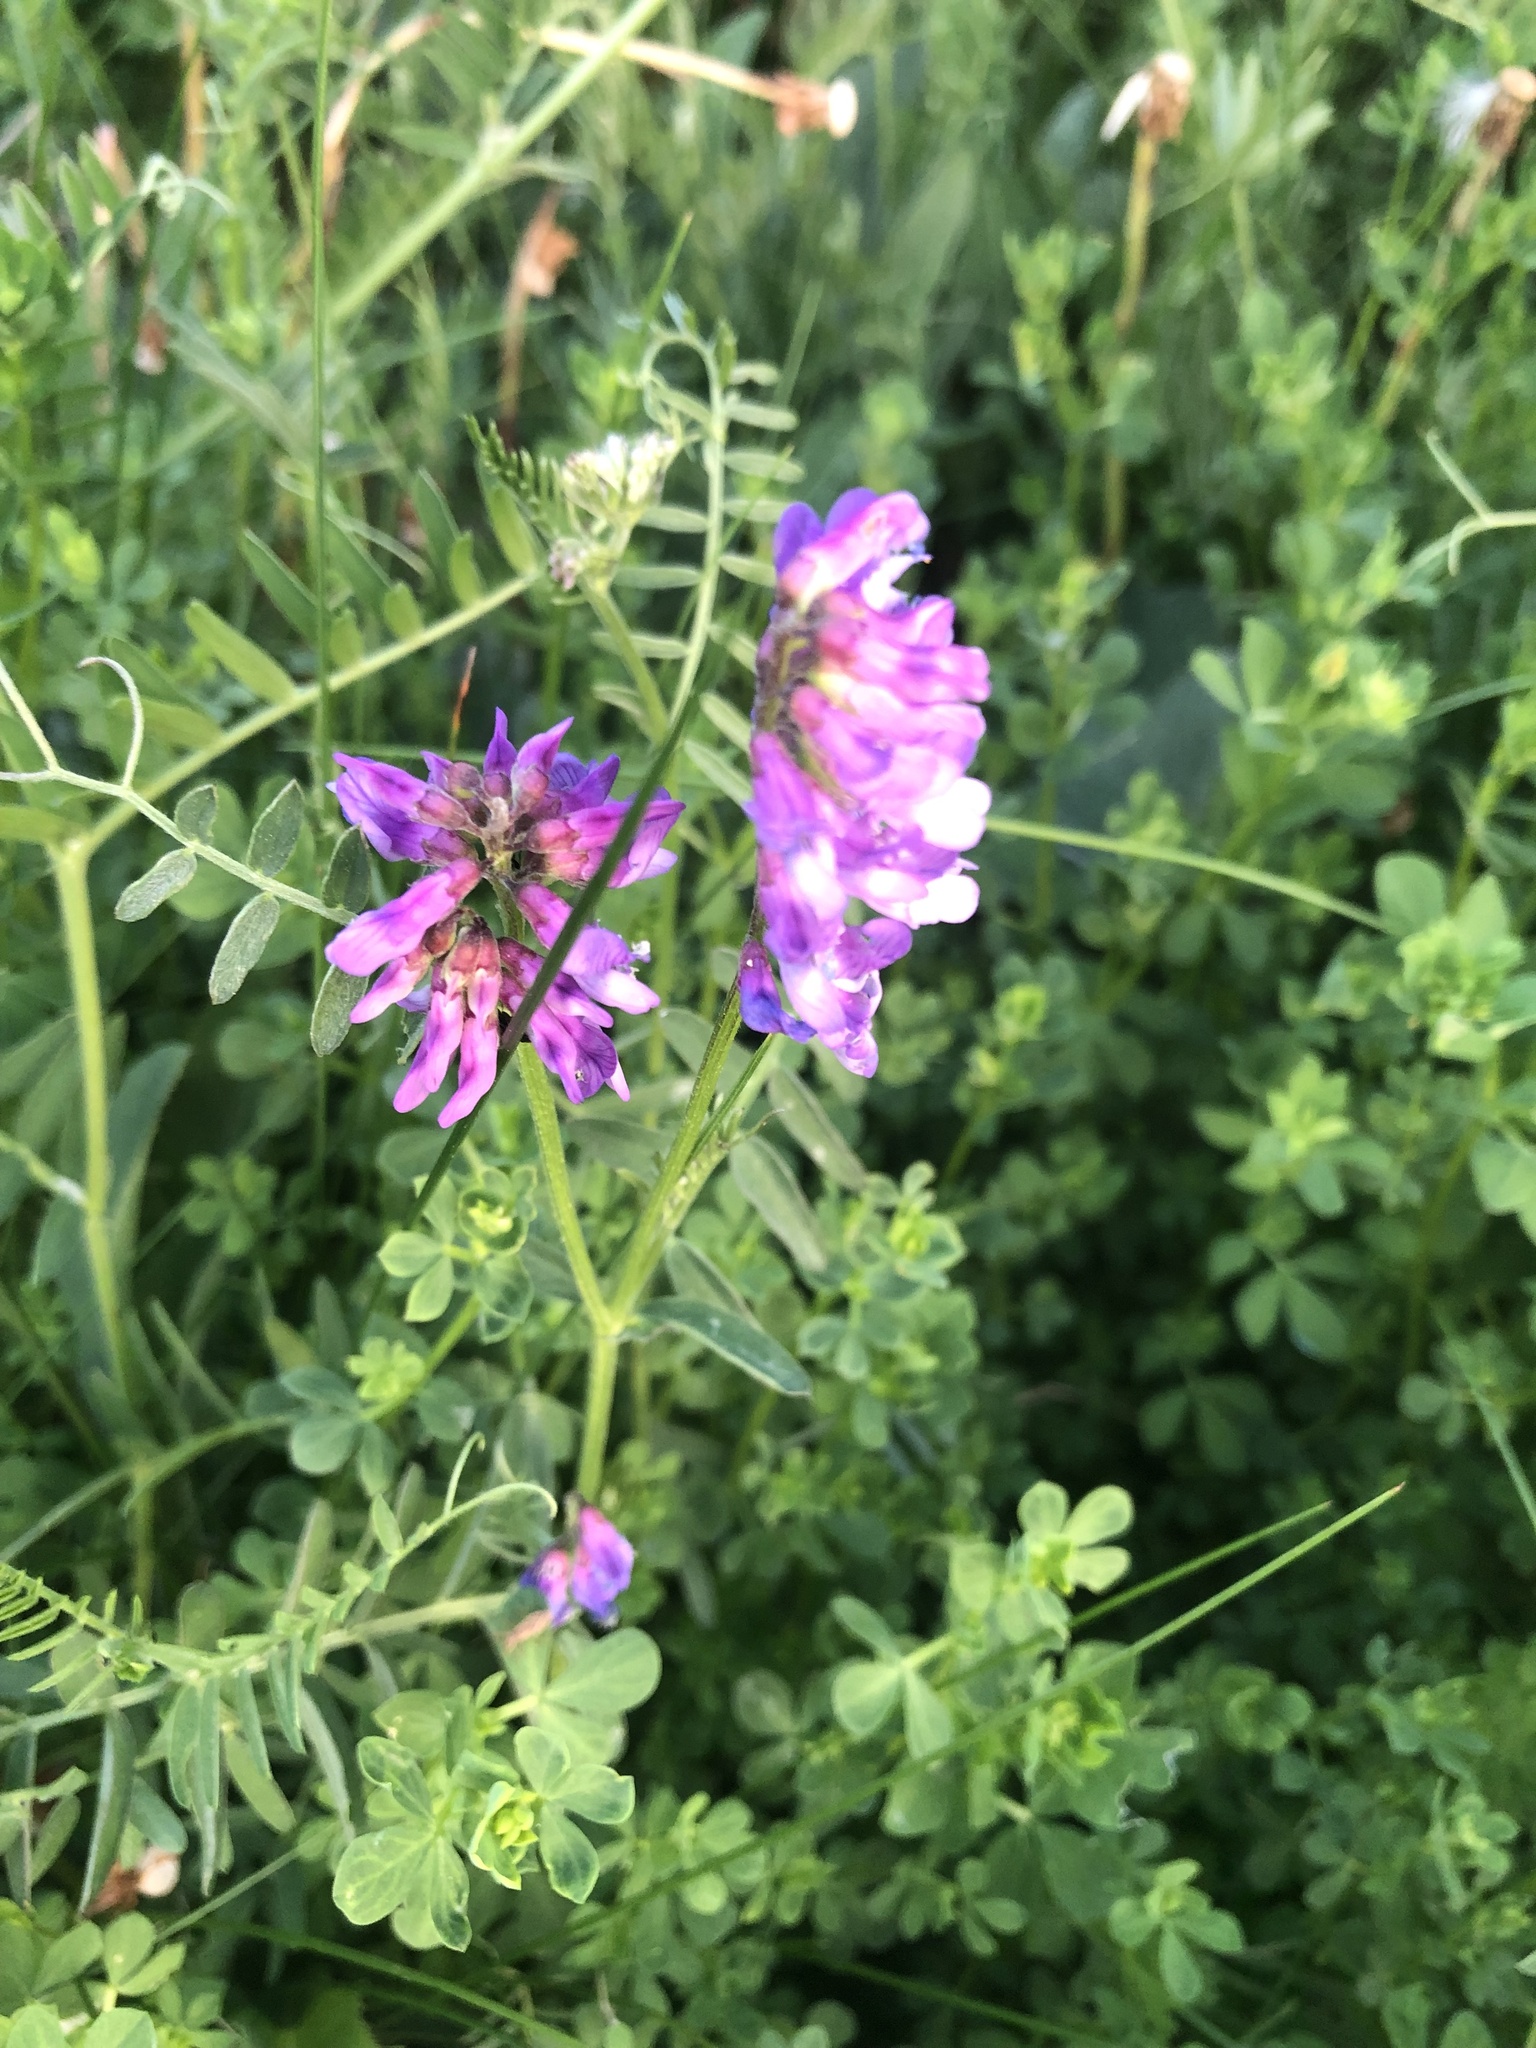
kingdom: Plantae
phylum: Tracheophyta
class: Magnoliopsida
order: Fabales
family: Fabaceae
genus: Coronilla
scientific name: Coronilla varia
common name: Crownvetch
